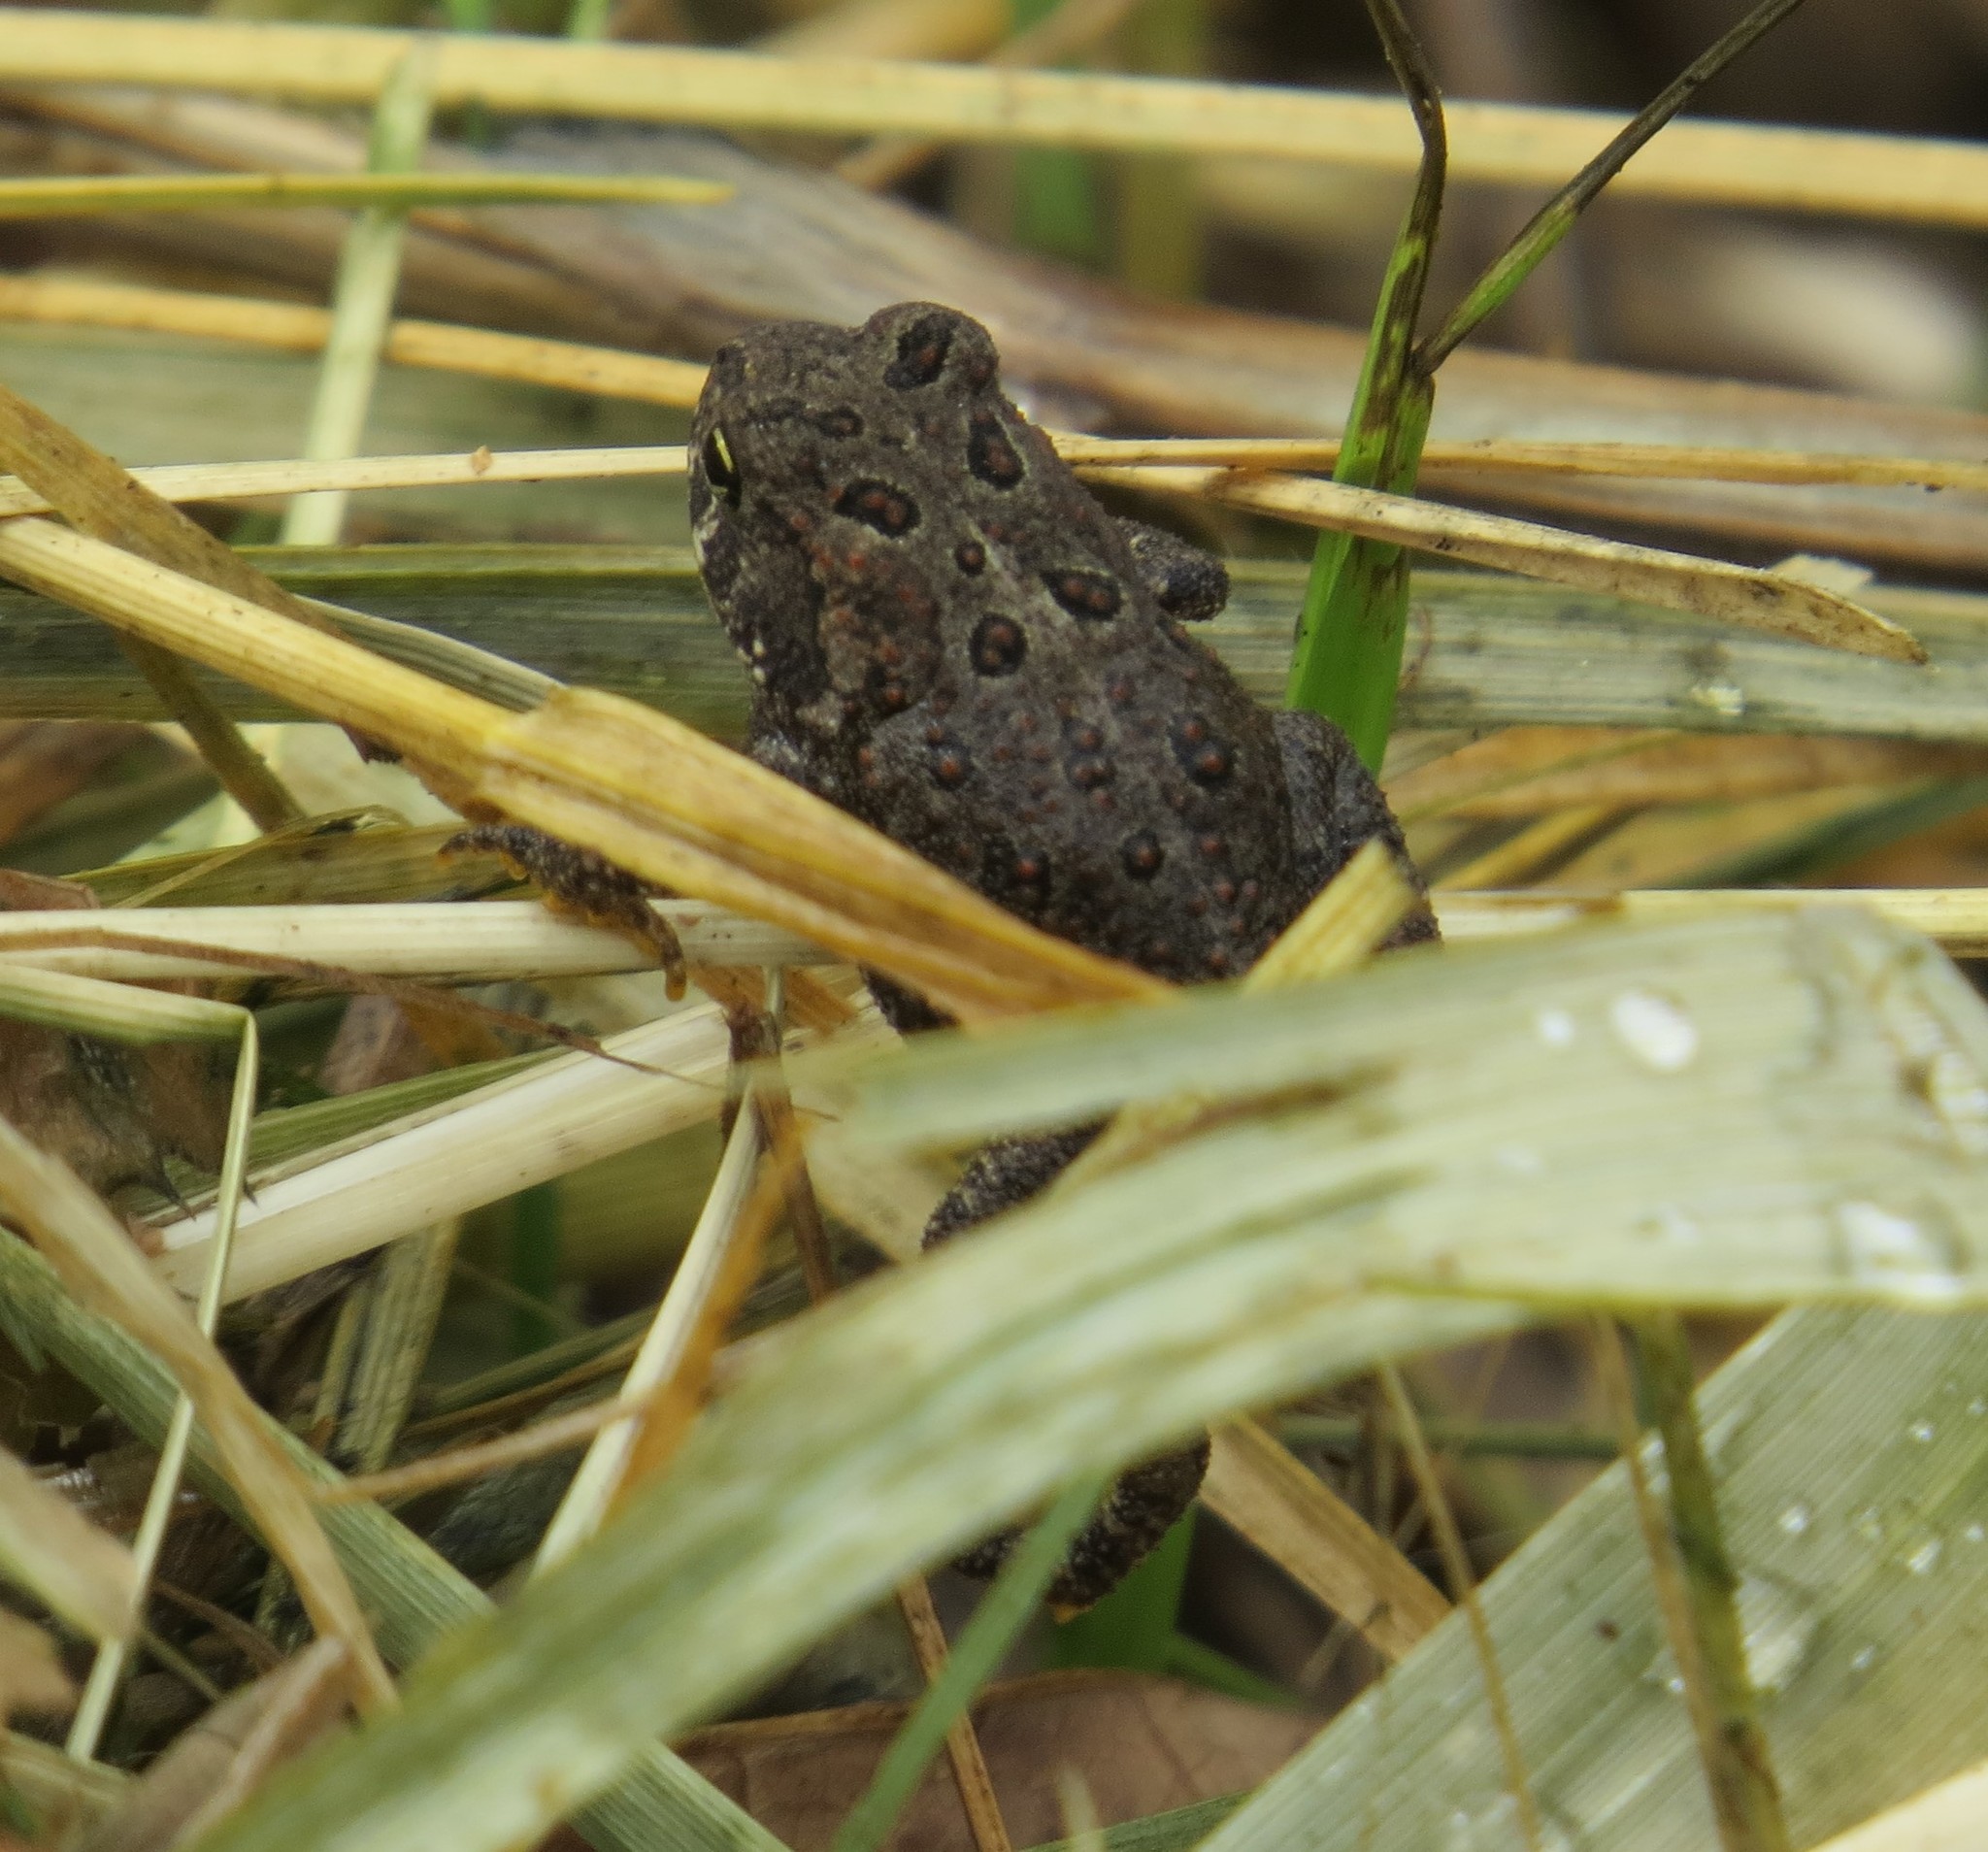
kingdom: Animalia
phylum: Chordata
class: Amphibia
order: Anura
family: Bufonidae
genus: Anaxyrus
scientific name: Anaxyrus americanus
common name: American toad
